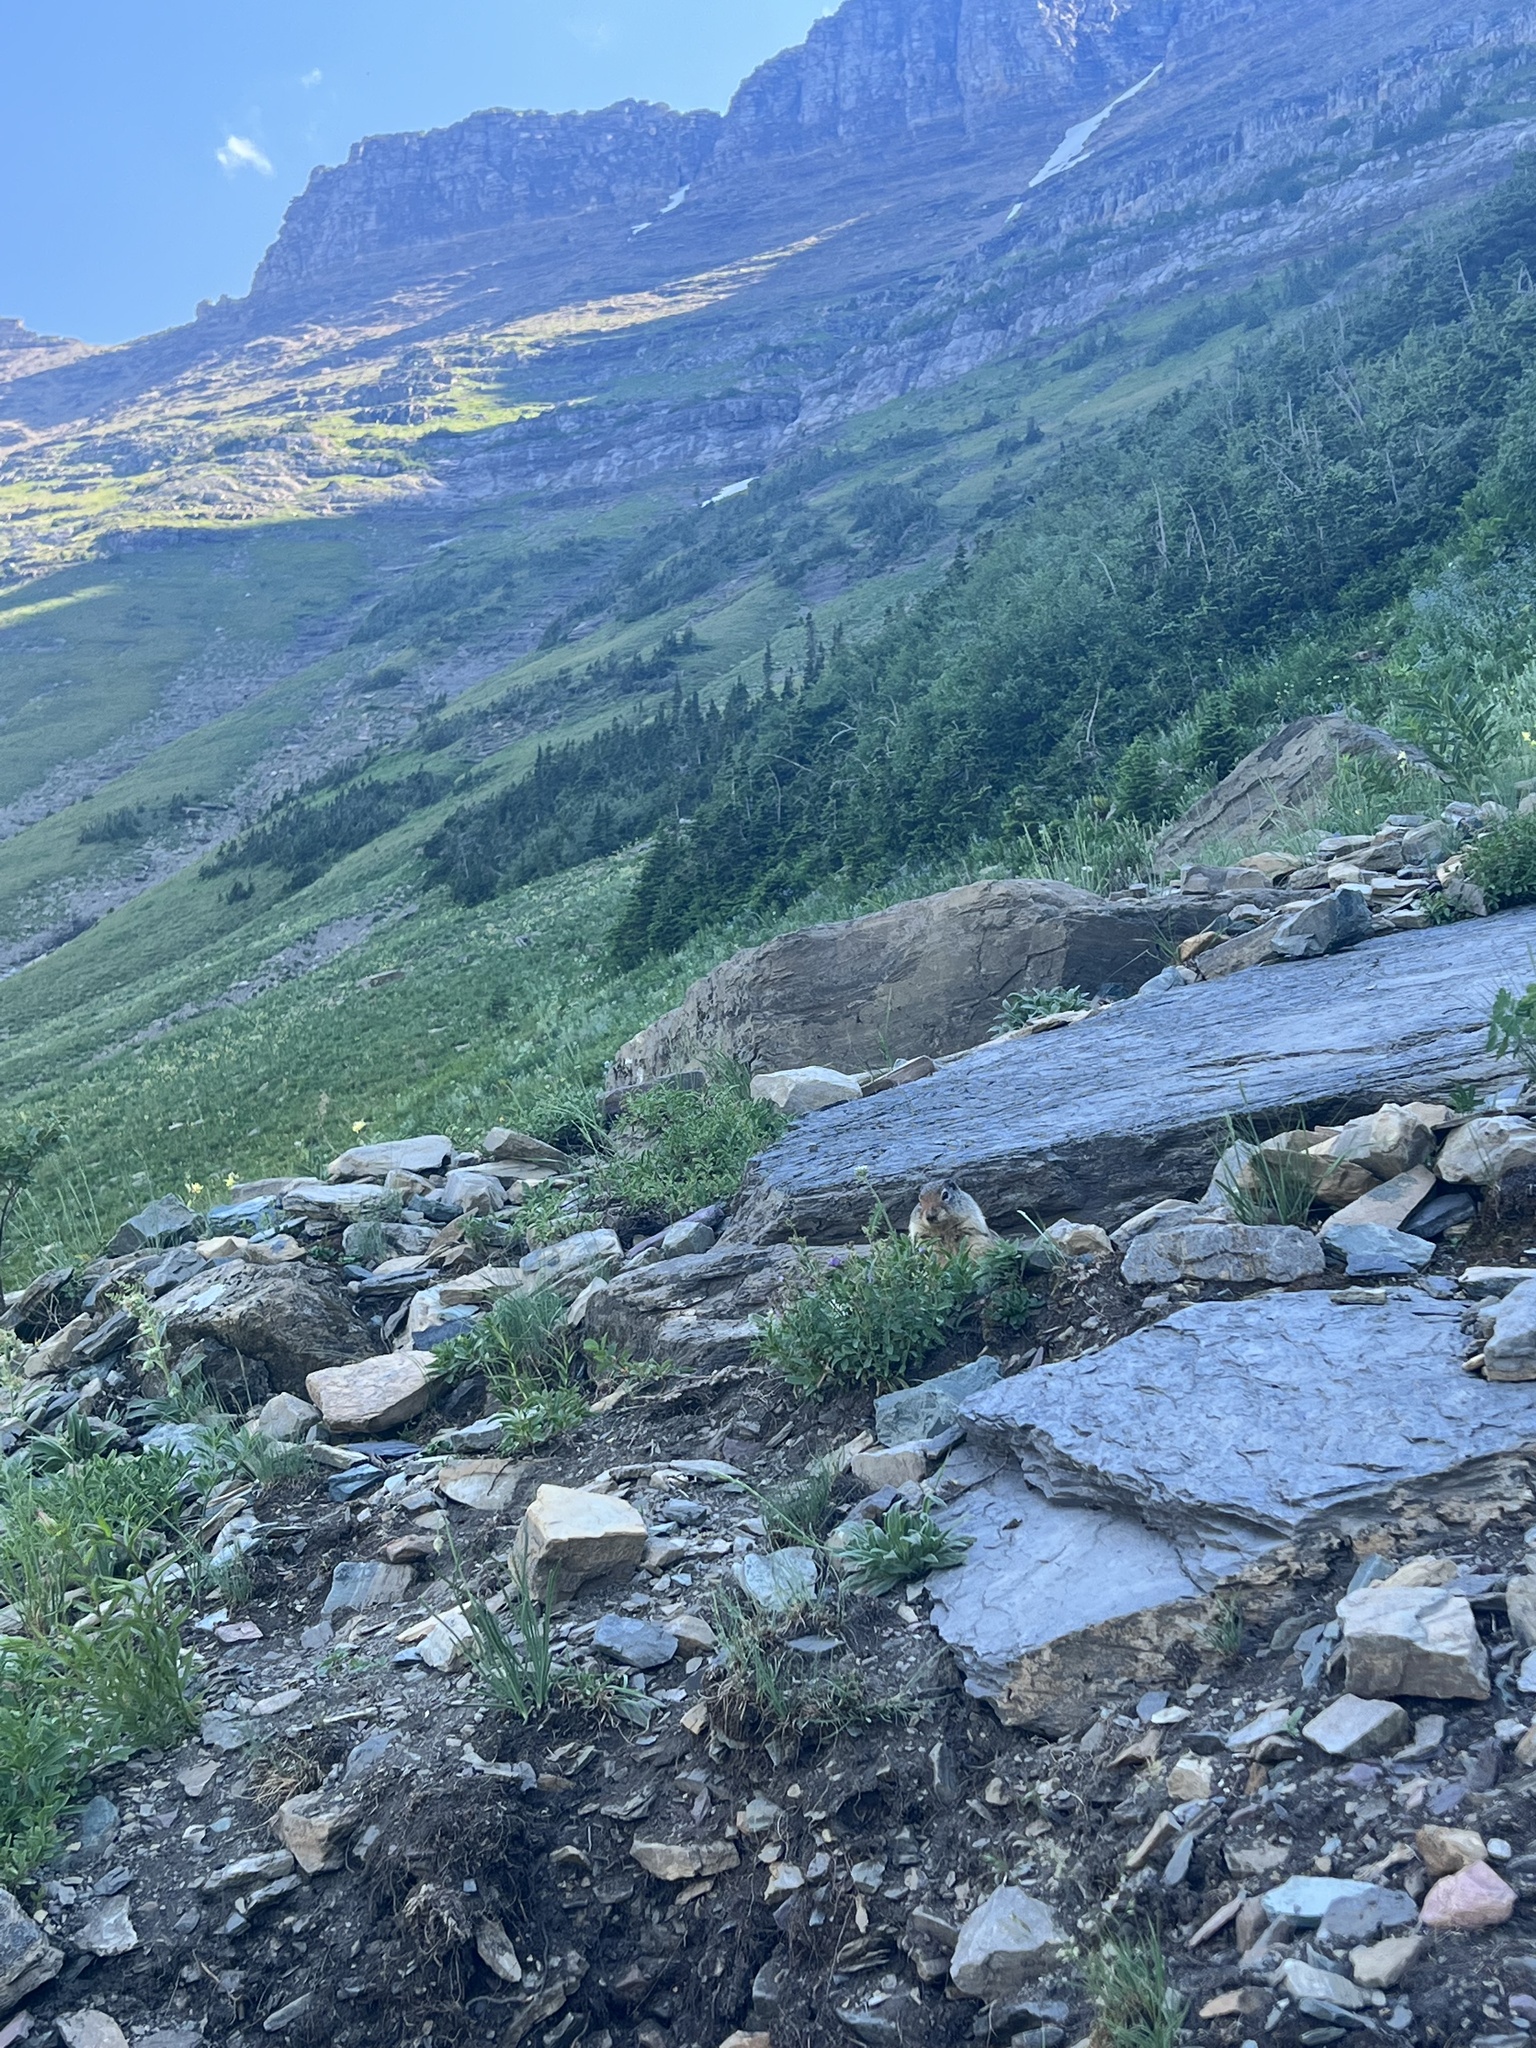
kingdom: Animalia
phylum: Chordata
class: Mammalia
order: Rodentia
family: Sciuridae
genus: Urocitellus
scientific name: Urocitellus columbianus
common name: Columbian ground squirrel
